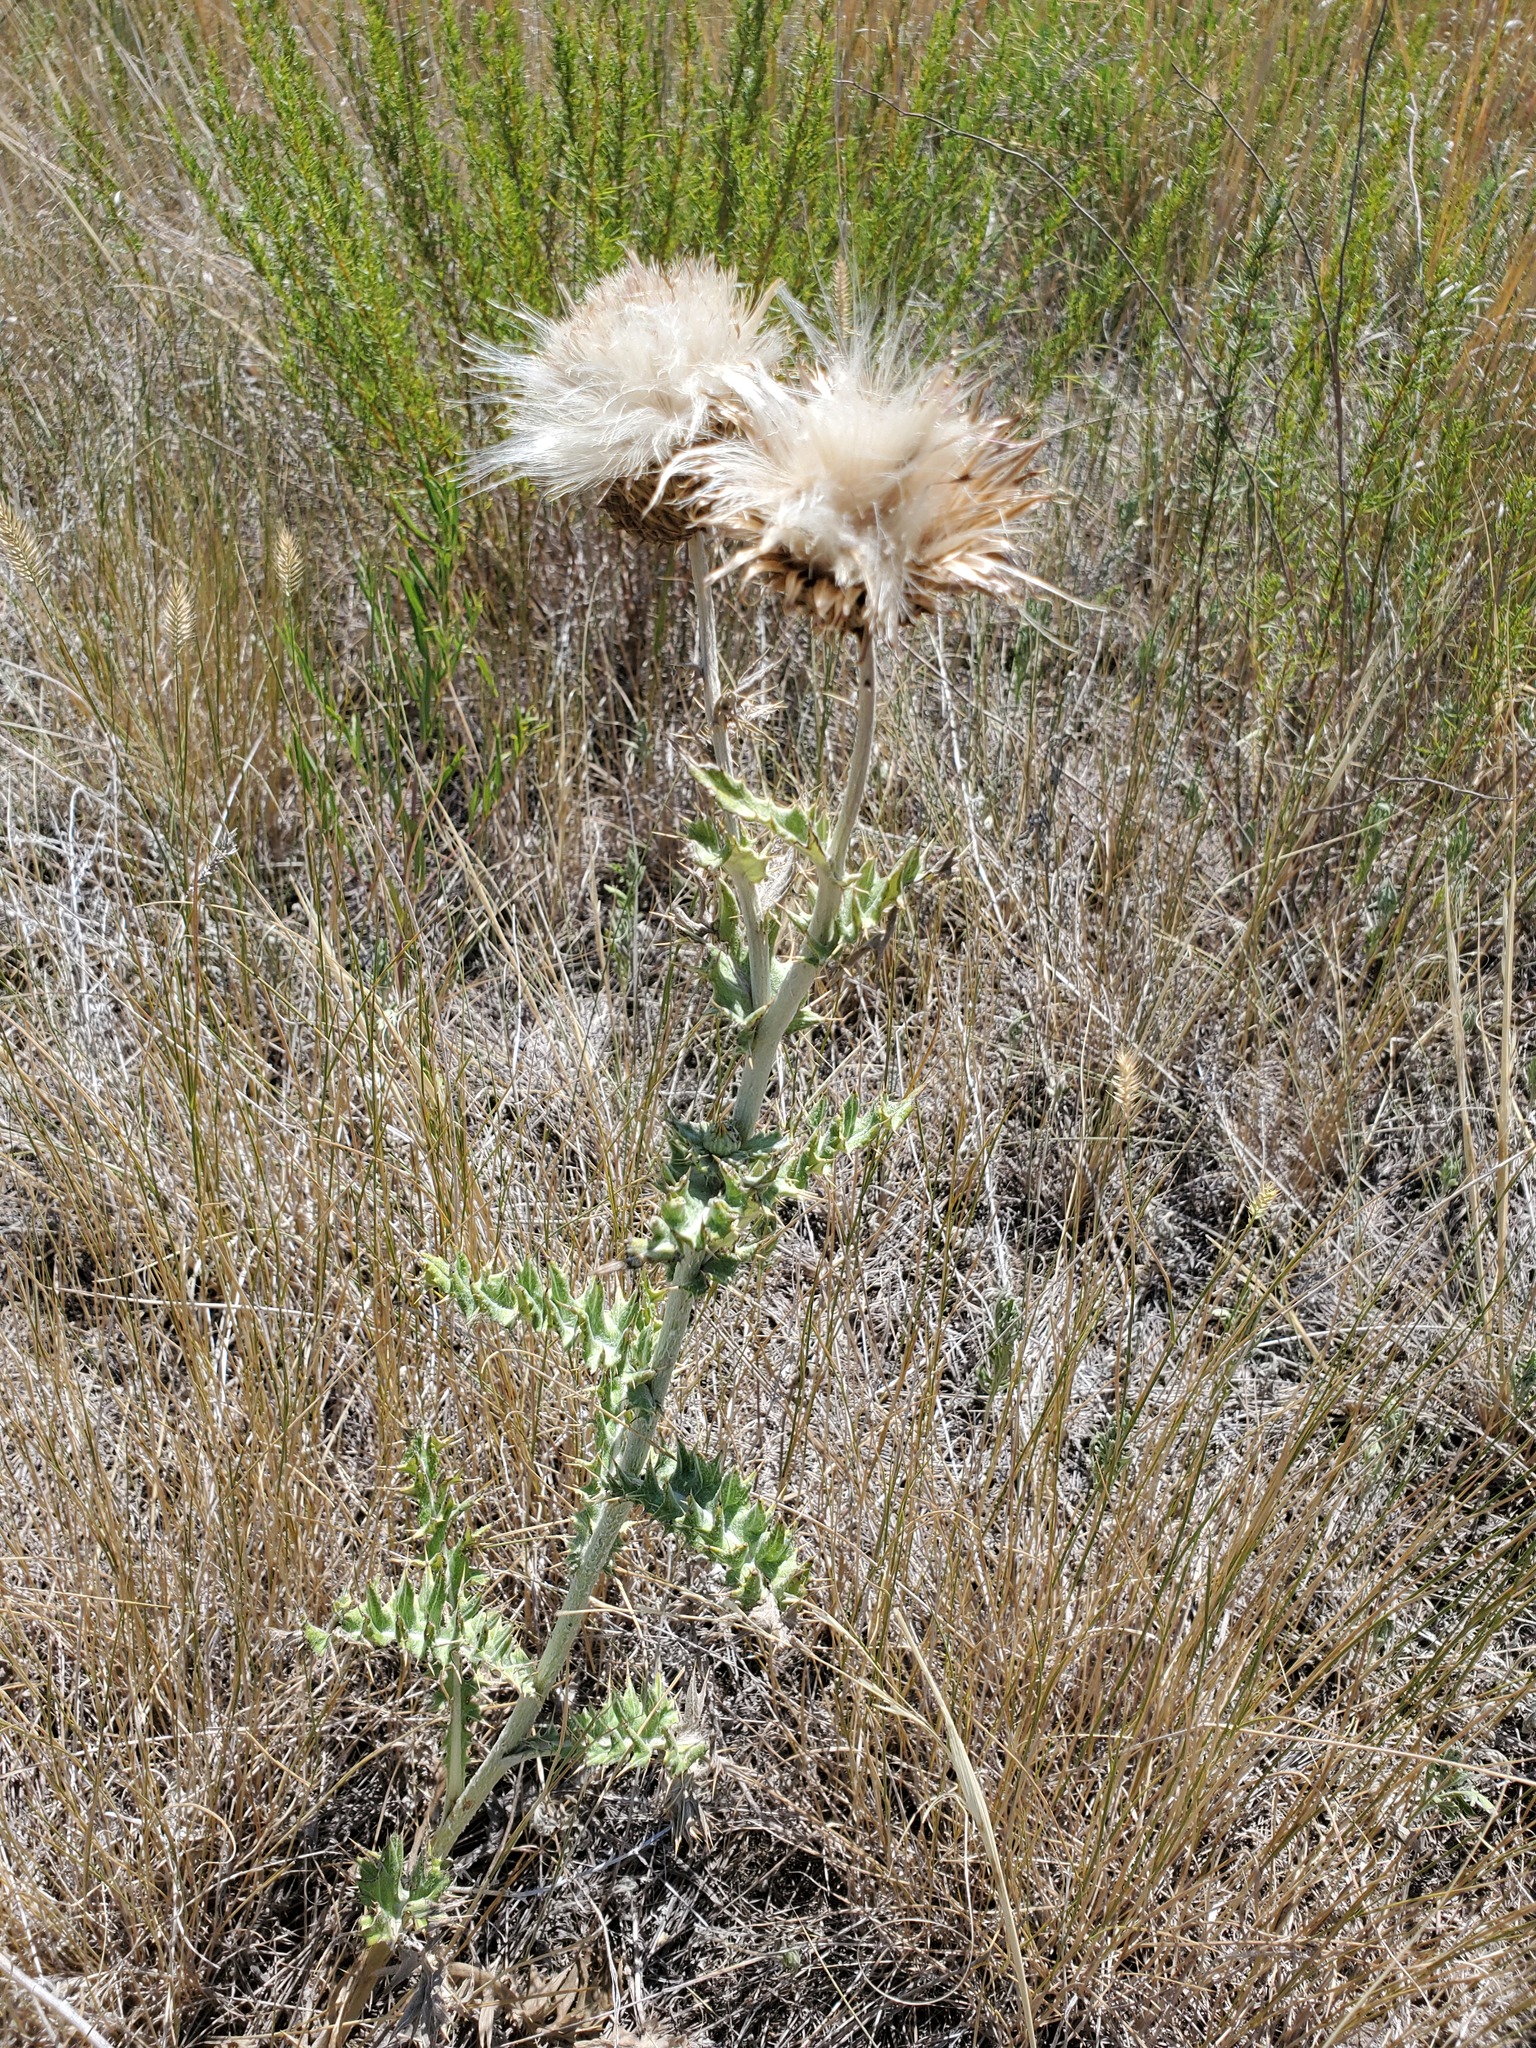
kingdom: Plantae
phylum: Tracheophyta
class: Magnoliopsida
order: Asterales
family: Asteraceae
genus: Cirsium
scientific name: Cirsium undulatum
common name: Pasture thistle
